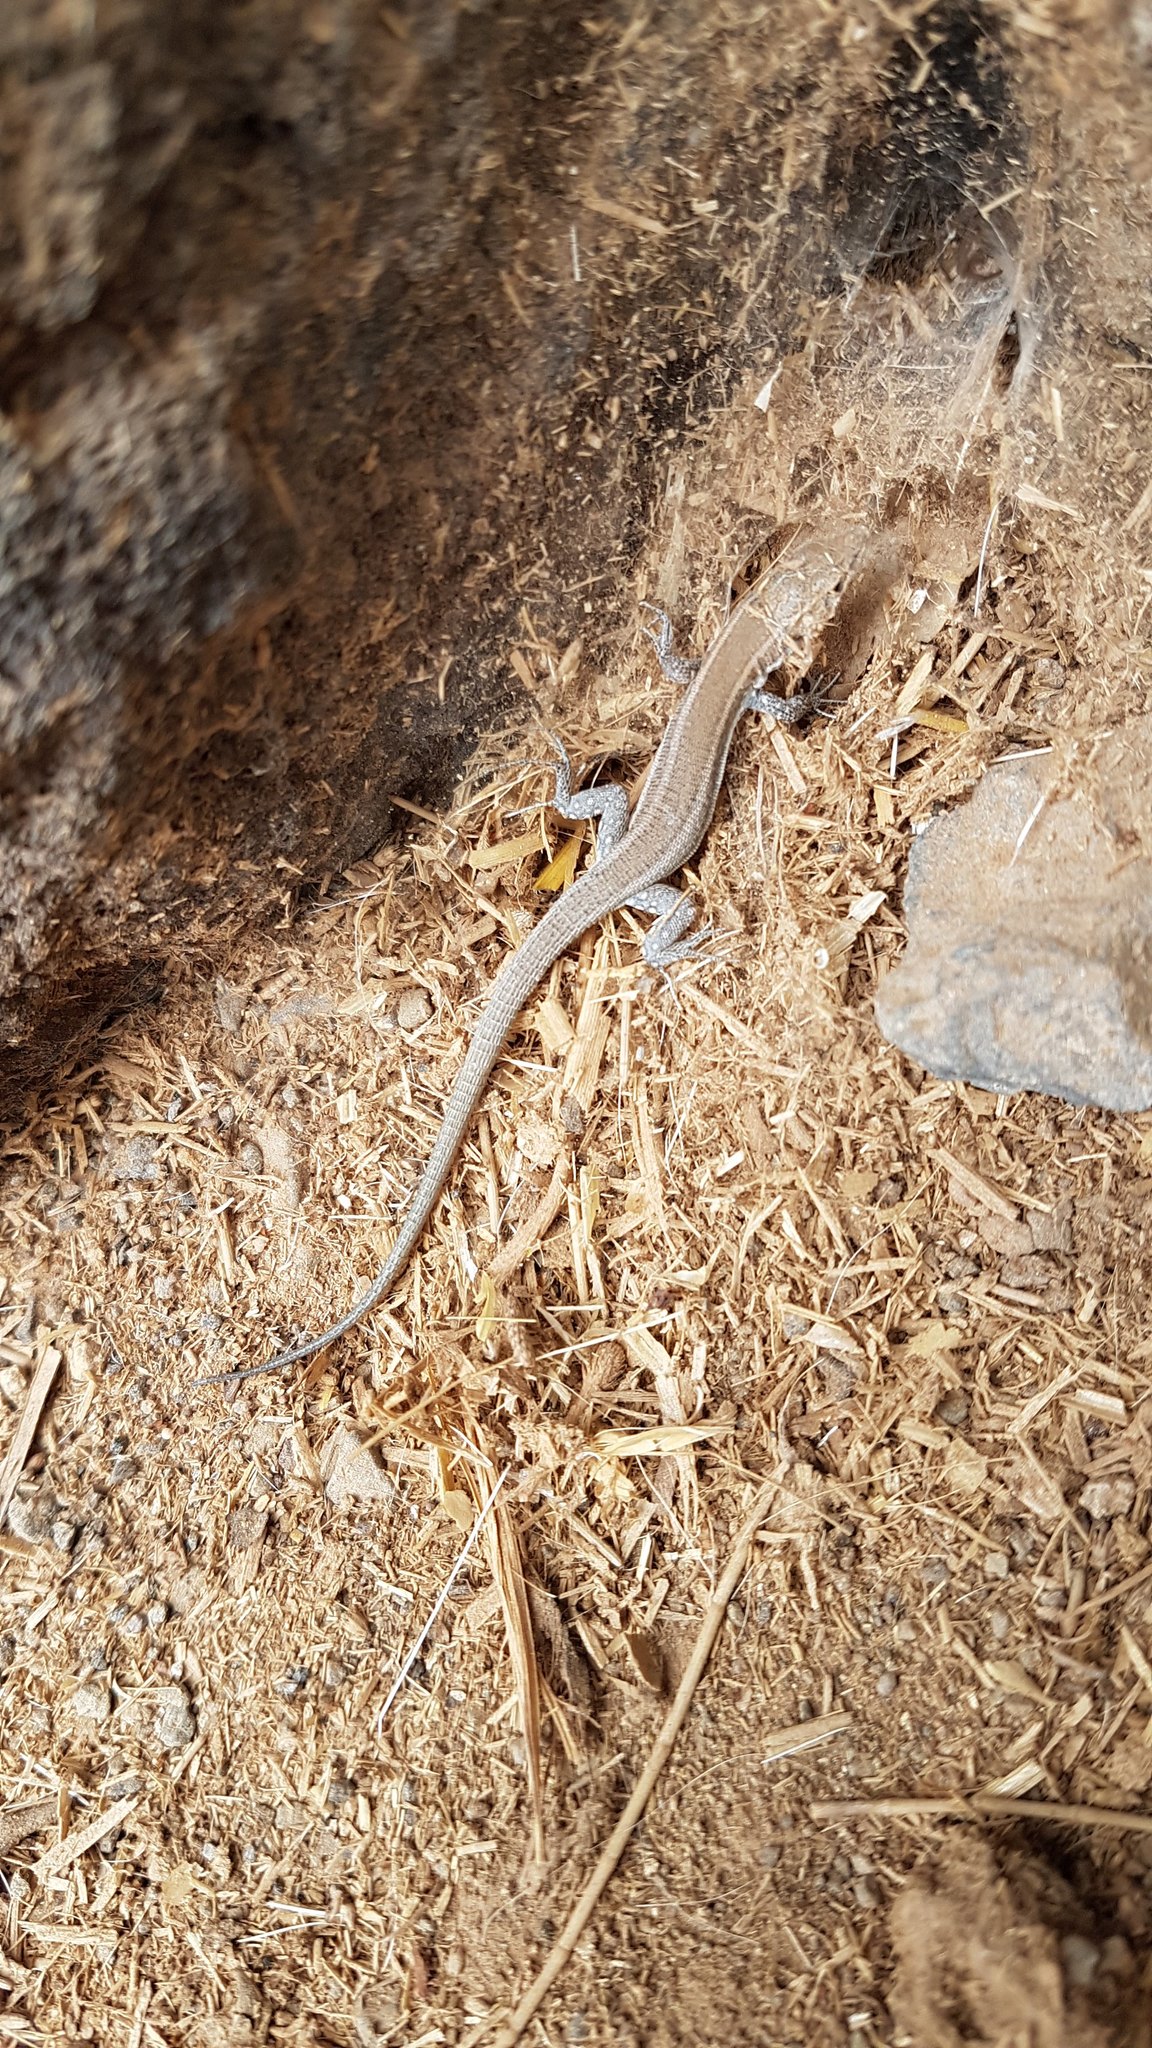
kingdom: Animalia
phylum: Chordata
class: Squamata
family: Lacertidae
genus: Gallotia
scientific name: Gallotia atlantica
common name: Atlantic lizard
